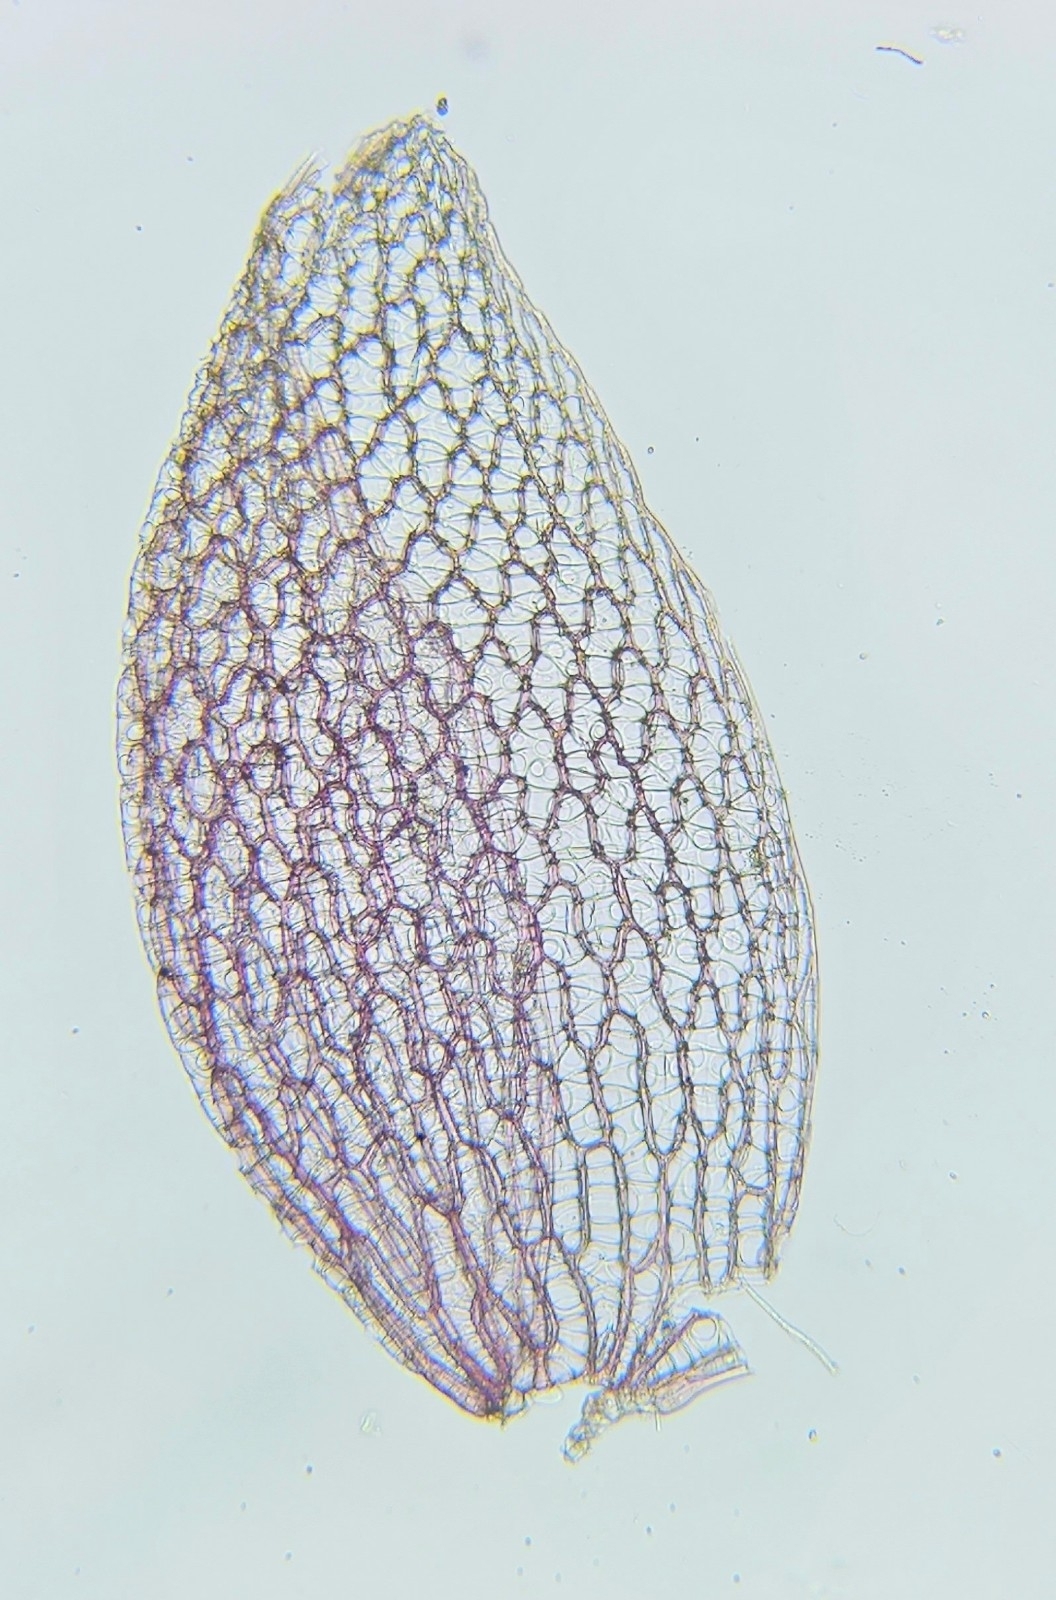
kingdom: Plantae
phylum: Bryophyta
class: Sphagnopsida
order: Sphagnales
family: Sphagnaceae
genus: Sphagnum
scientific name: Sphagnum capillifolium
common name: Small red peat moss
